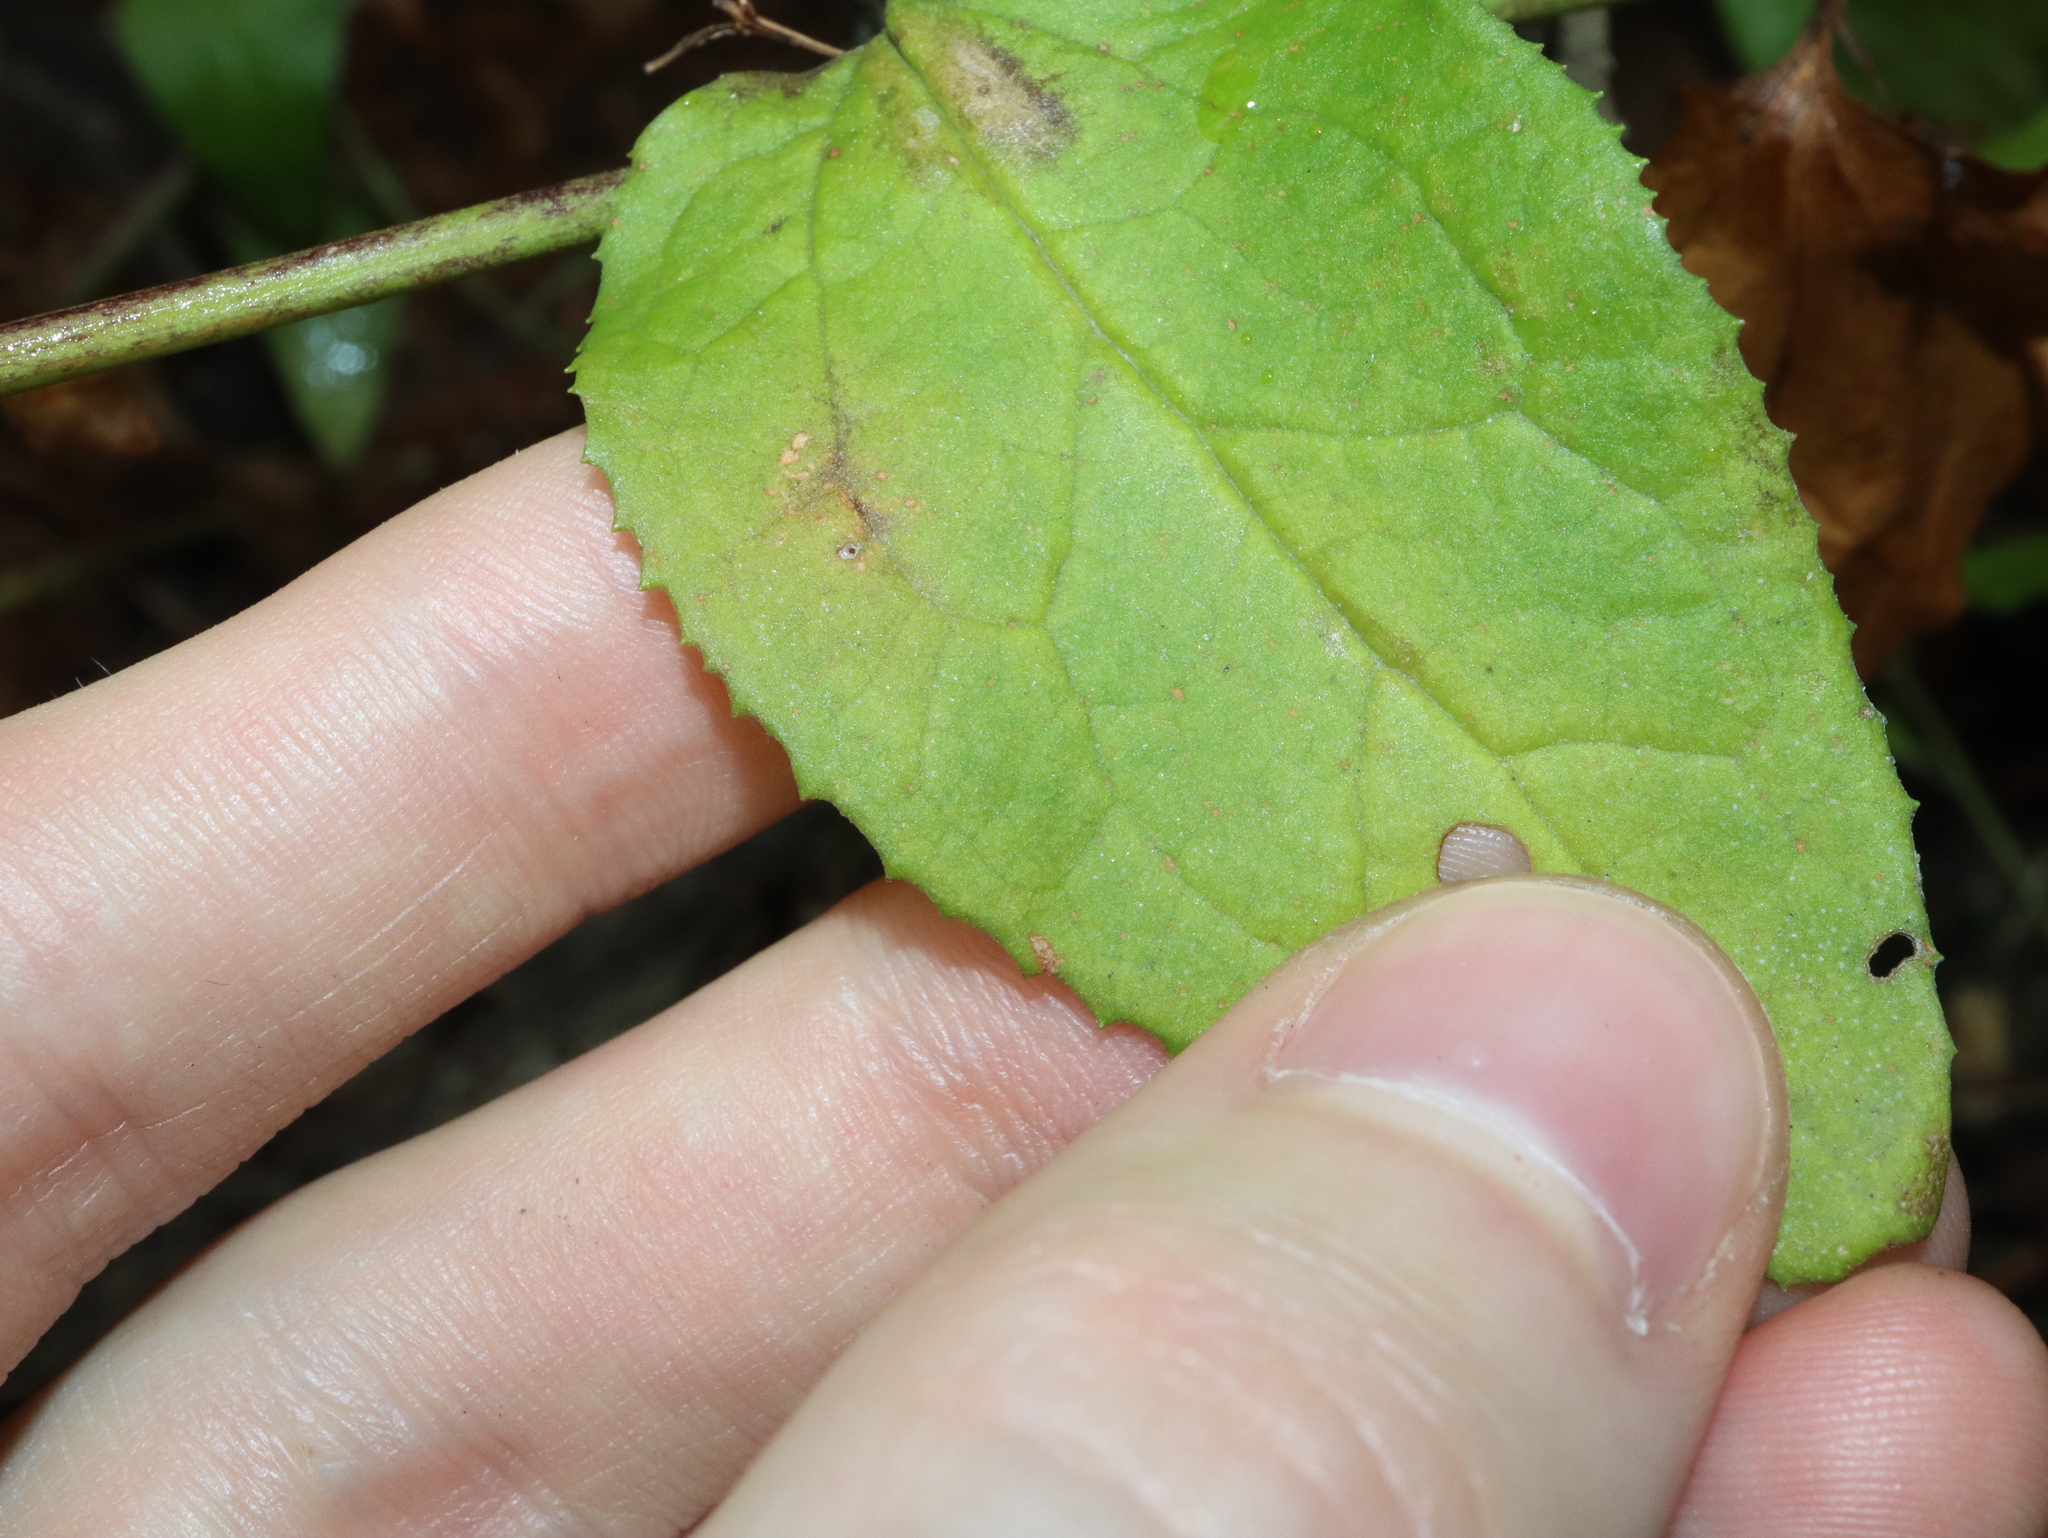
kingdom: Plantae
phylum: Tracheophyta
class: Magnoliopsida
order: Asterales
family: Goodeniaceae
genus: Goodenia
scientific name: Goodenia ovata
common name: Hop goodenia
